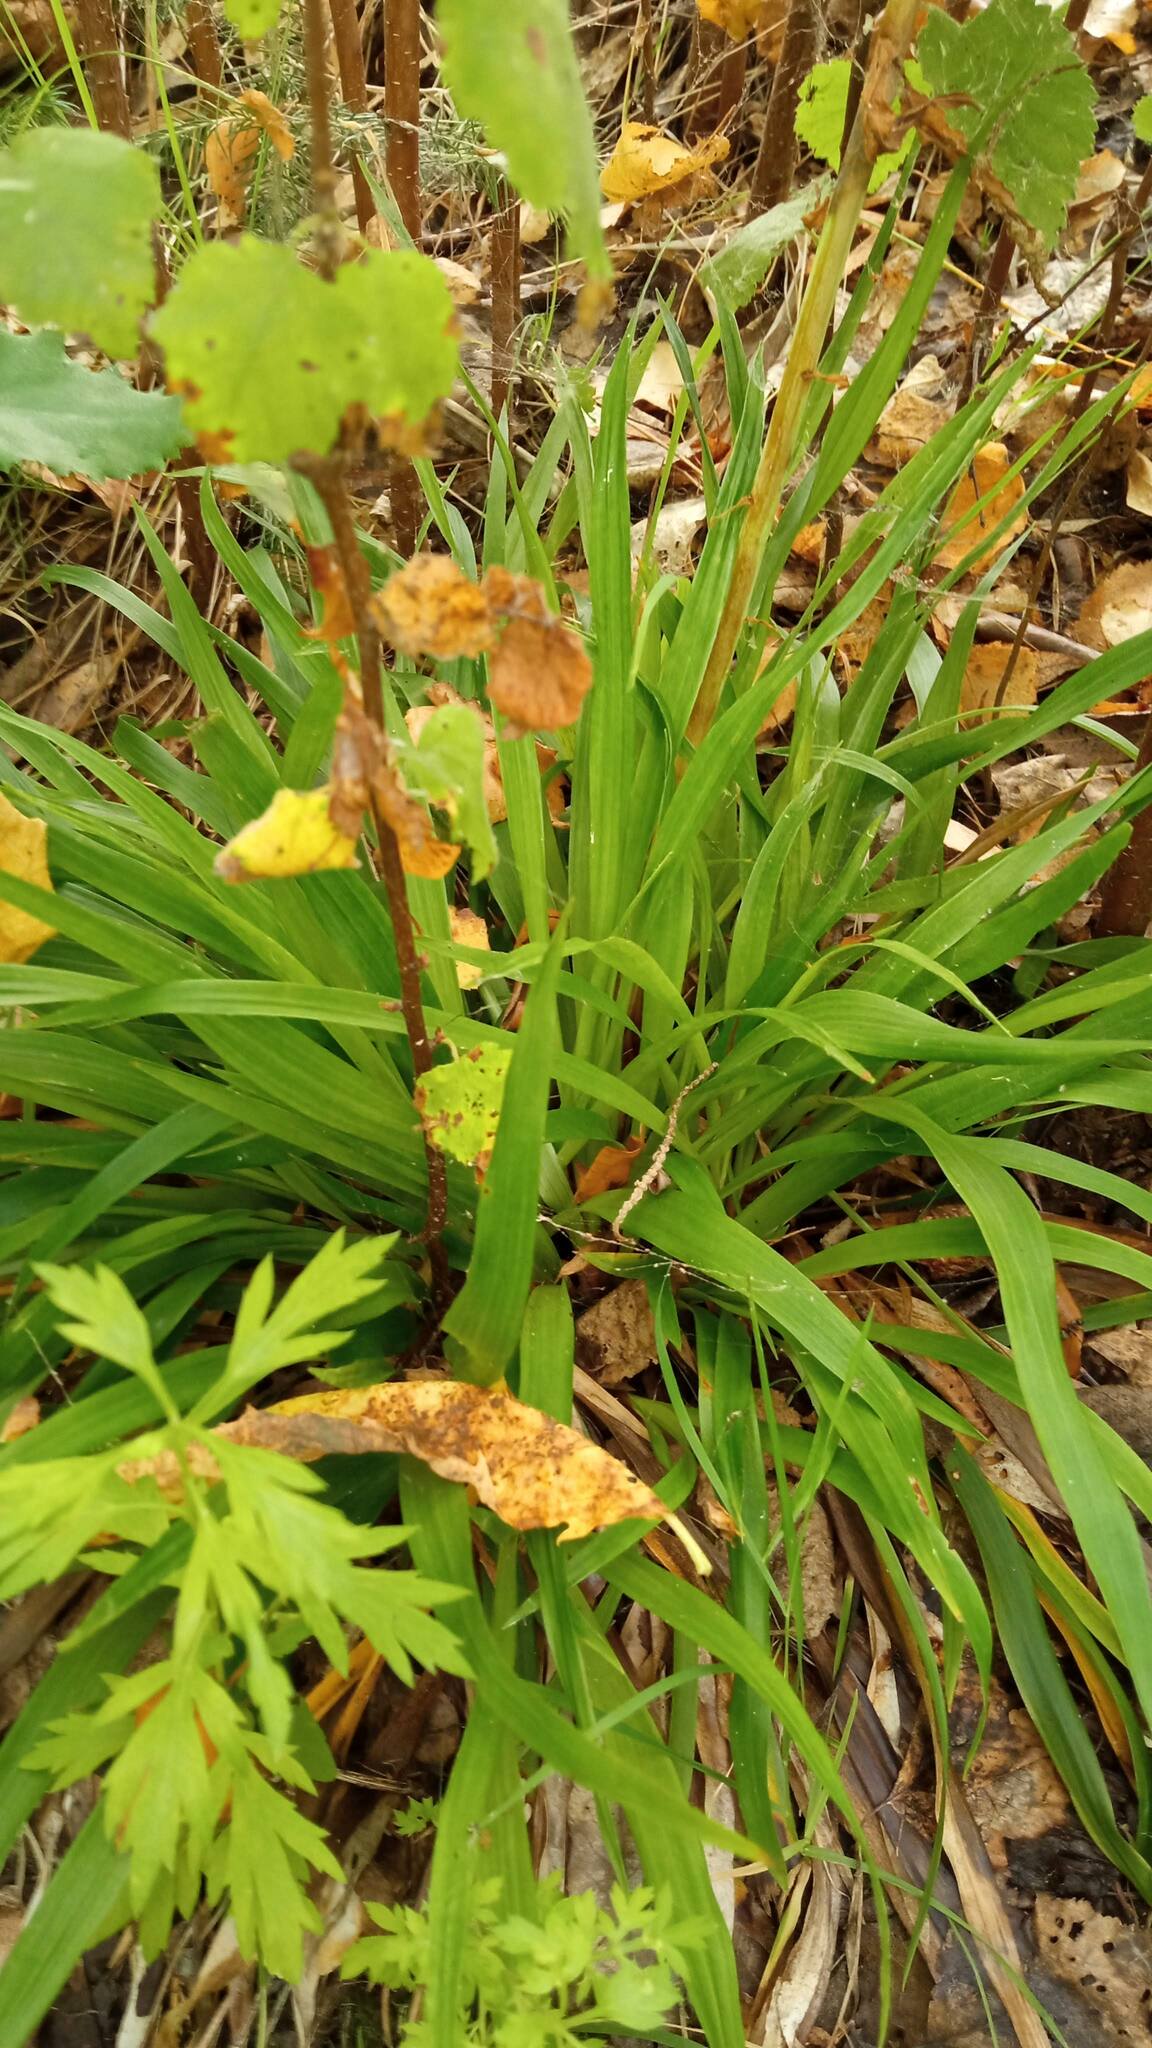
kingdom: Plantae
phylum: Tracheophyta
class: Liliopsida
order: Poales
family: Juncaceae
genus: Luzula
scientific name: Luzula pilosa
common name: Hairy wood-rush
